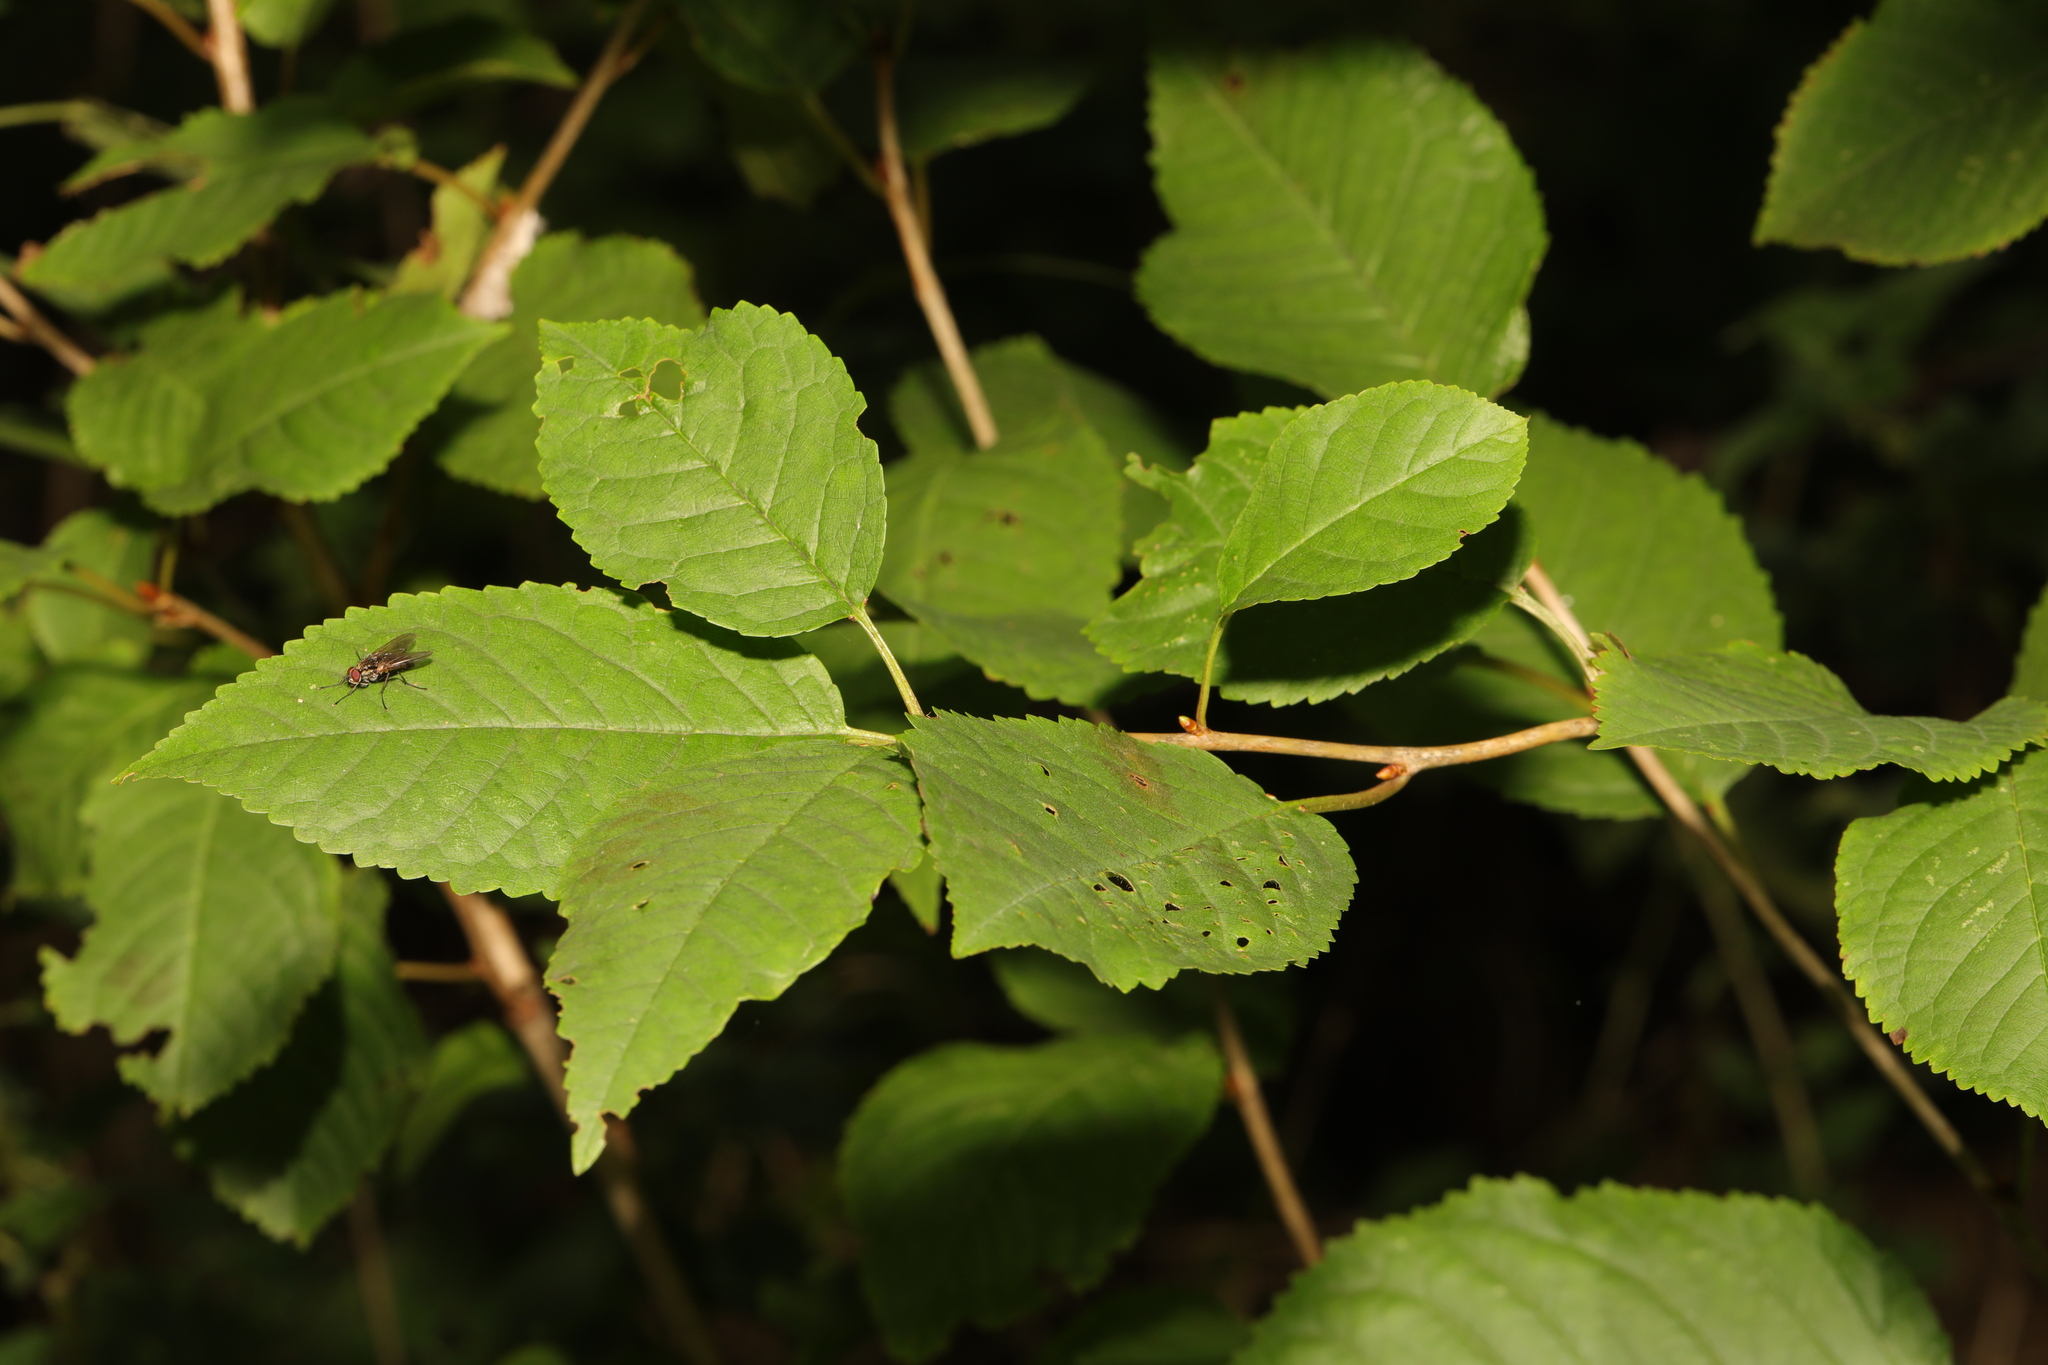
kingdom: Plantae
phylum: Tracheophyta
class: Magnoliopsida
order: Rosales
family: Rosaceae
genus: Prunus
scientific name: Prunus avium
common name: Sweet cherry
